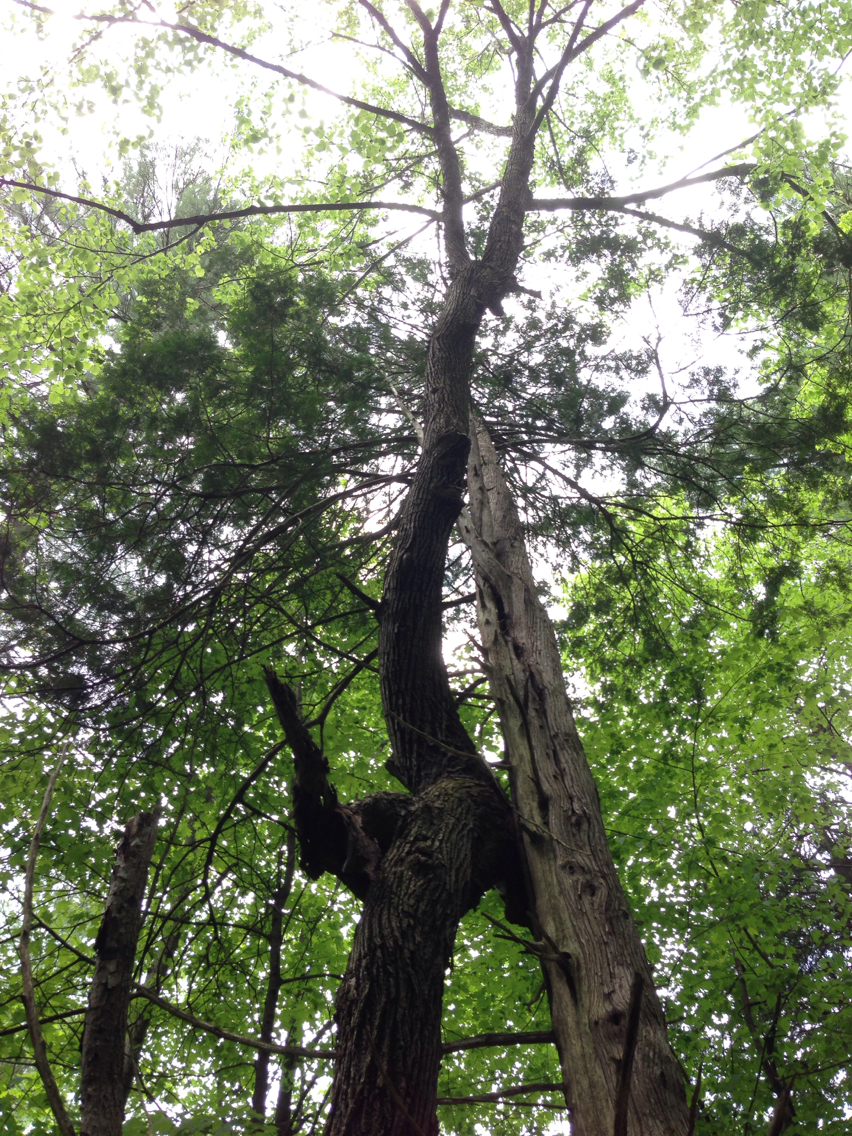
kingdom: Plantae
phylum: Tracheophyta
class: Magnoliopsida
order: Malvales
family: Malvaceae
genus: Tilia
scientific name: Tilia americana
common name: Basswood
